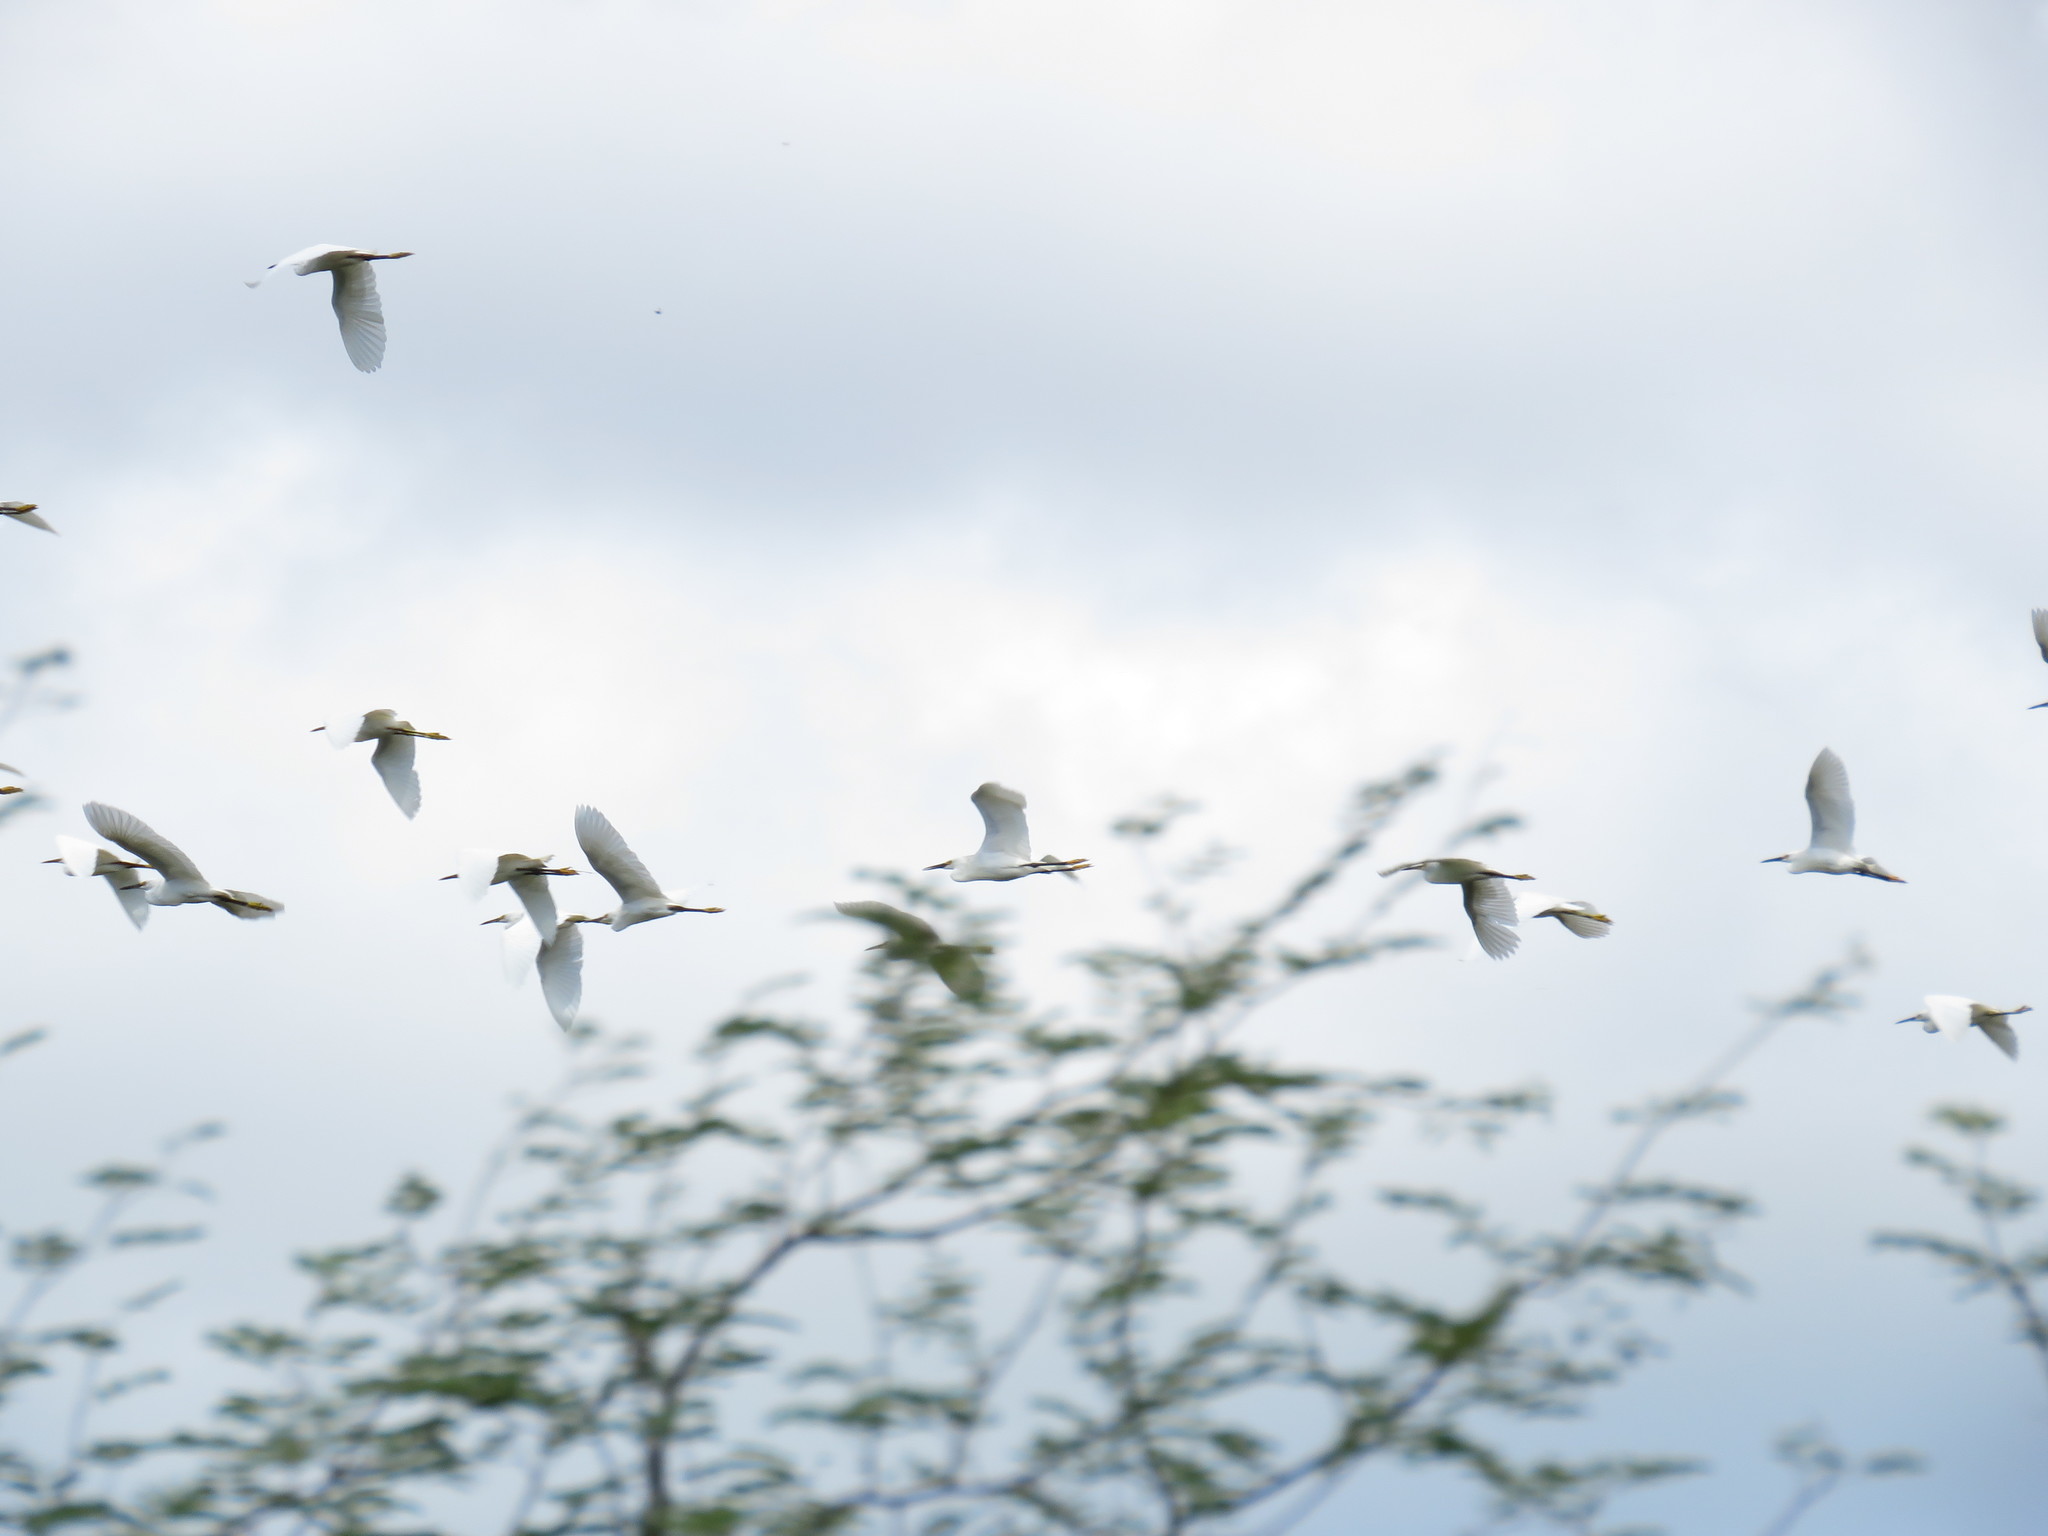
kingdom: Animalia
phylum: Chordata
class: Aves
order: Pelecaniformes
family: Ardeidae
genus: Egretta
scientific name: Egretta thula
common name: Snowy egret
